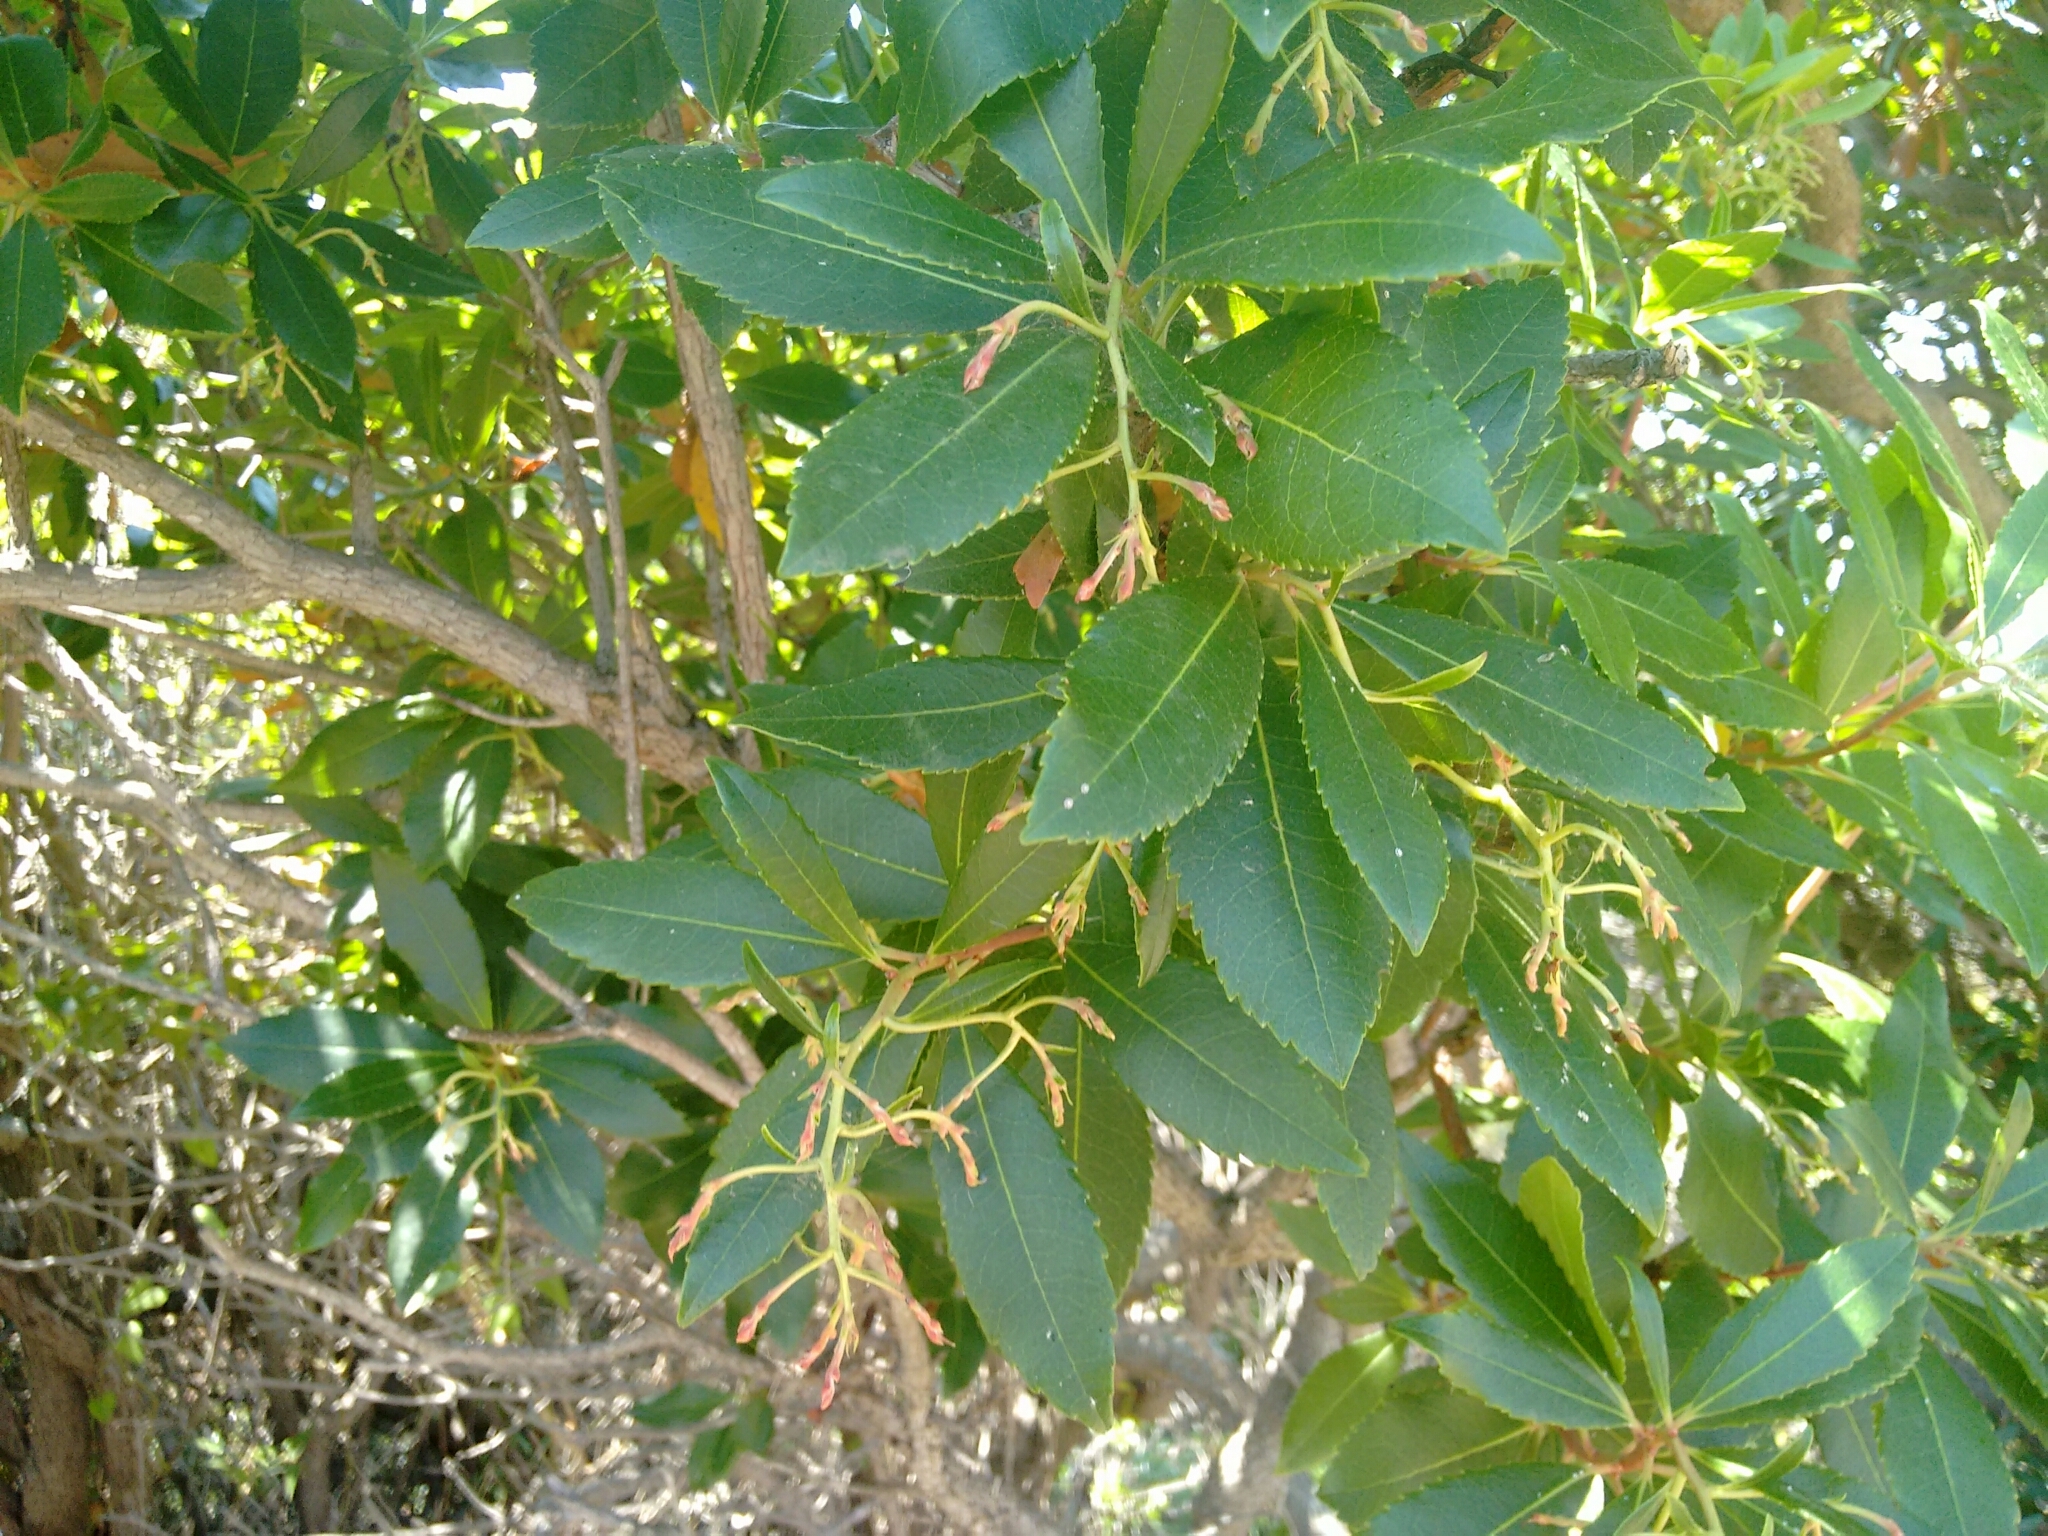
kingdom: Plantae
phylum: Tracheophyta
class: Magnoliopsida
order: Ericales
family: Ericaceae
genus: Arbutus
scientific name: Arbutus unedo
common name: Strawberry-tree
